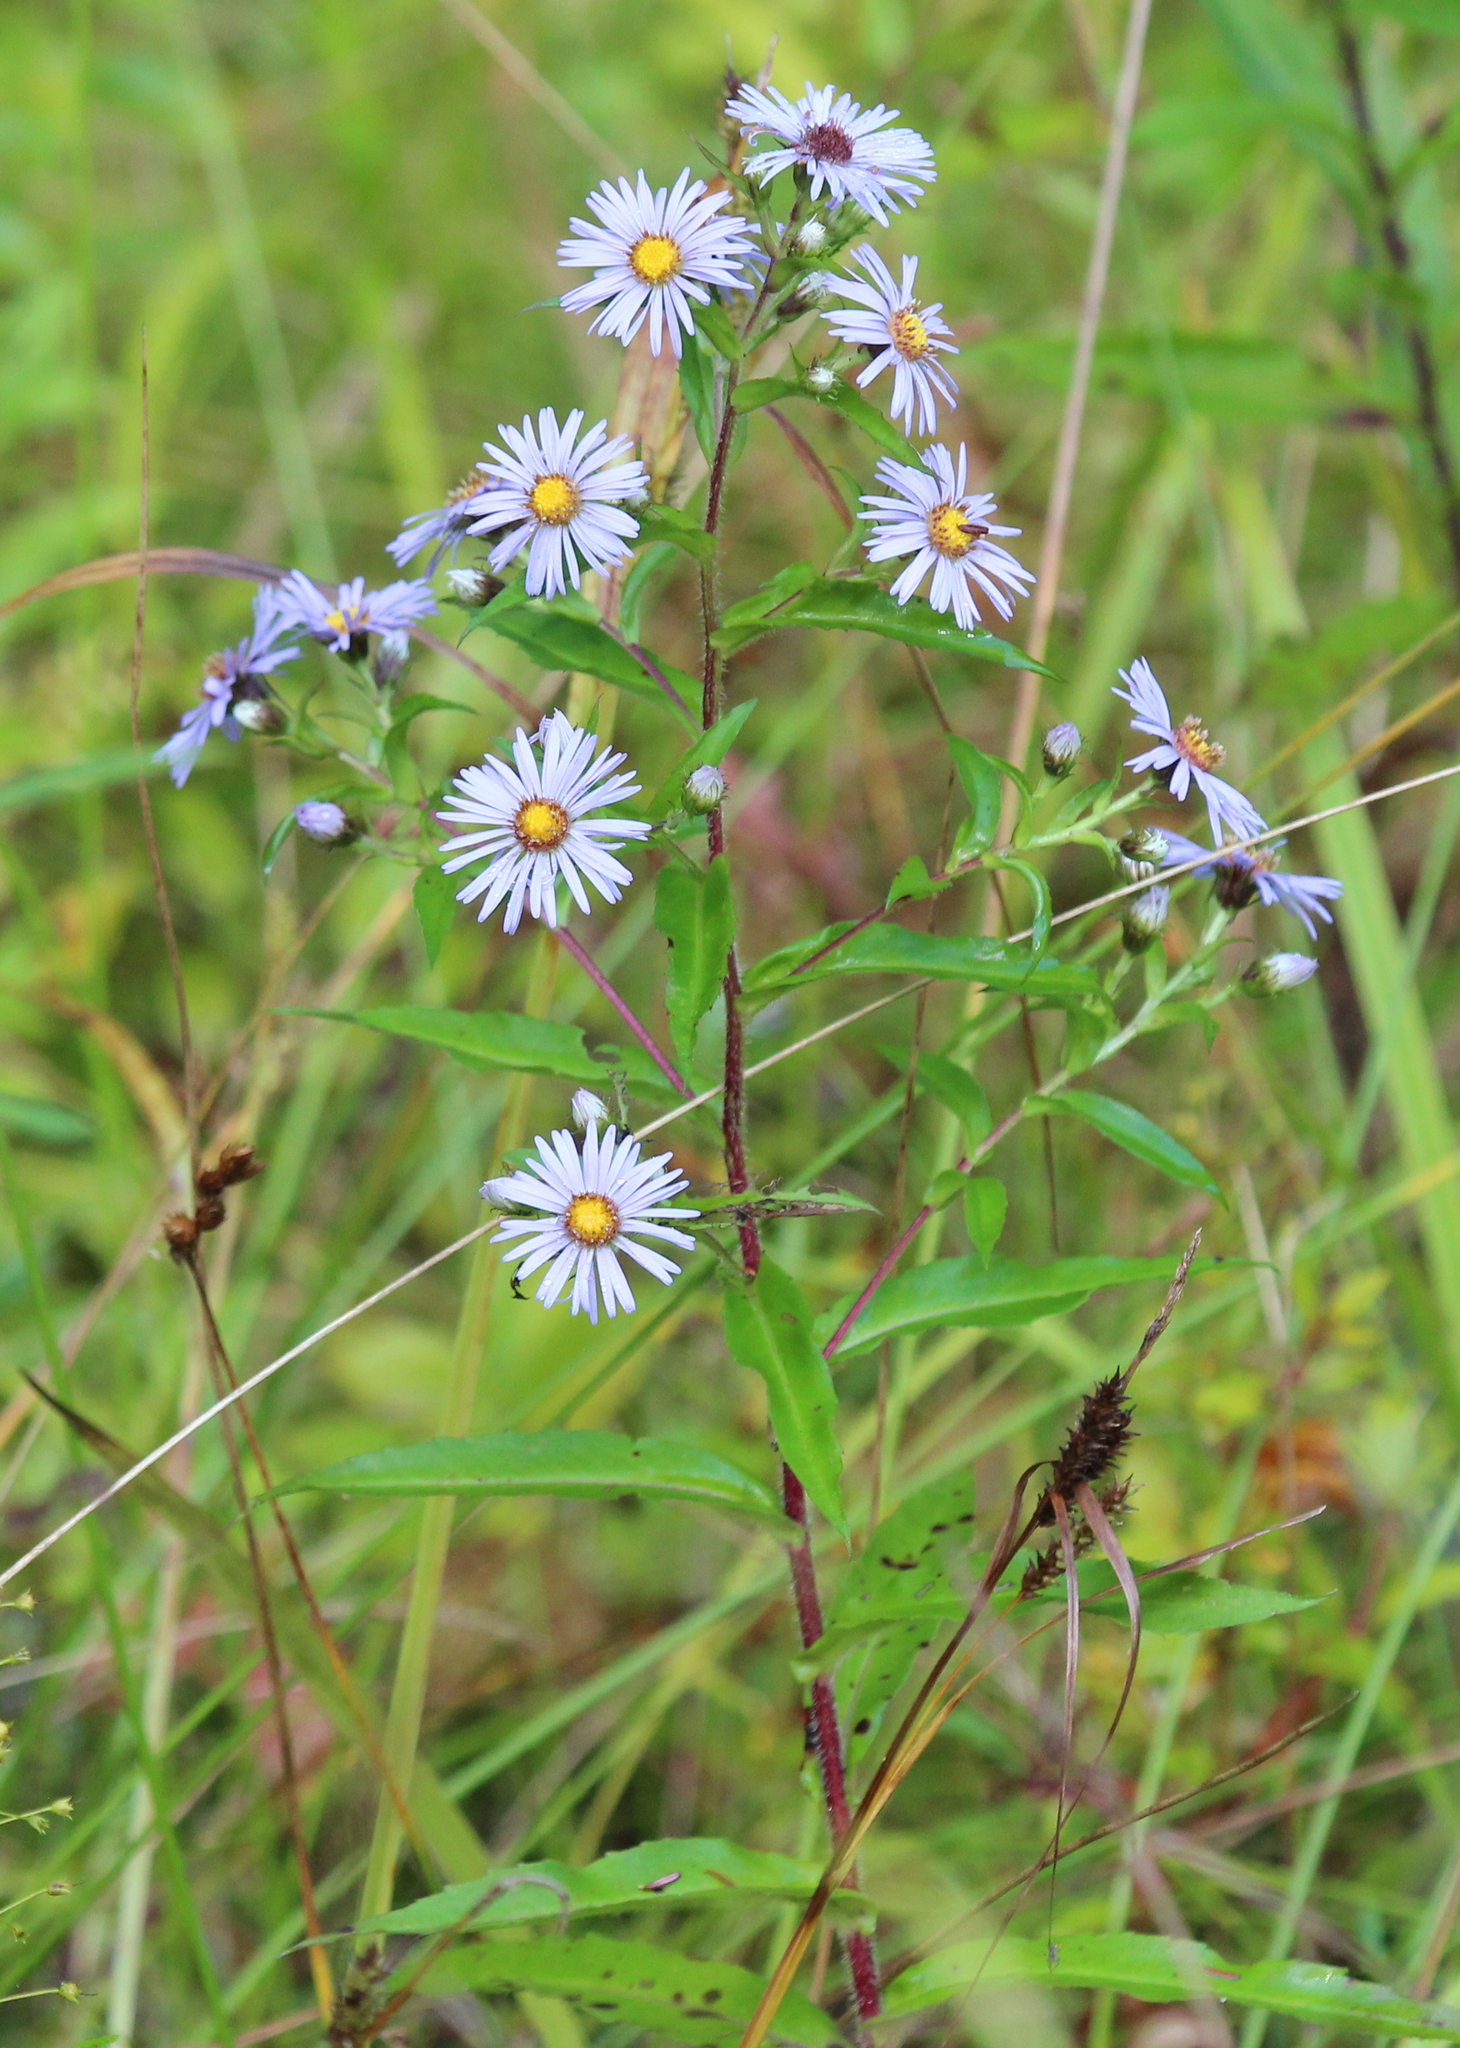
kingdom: Plantae
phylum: Tracheophyta
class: Magnoliopsida
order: Asterales
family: Asteraceae
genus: Symphyotrichum
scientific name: Symphyotrichum puniceum
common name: Bog aster
